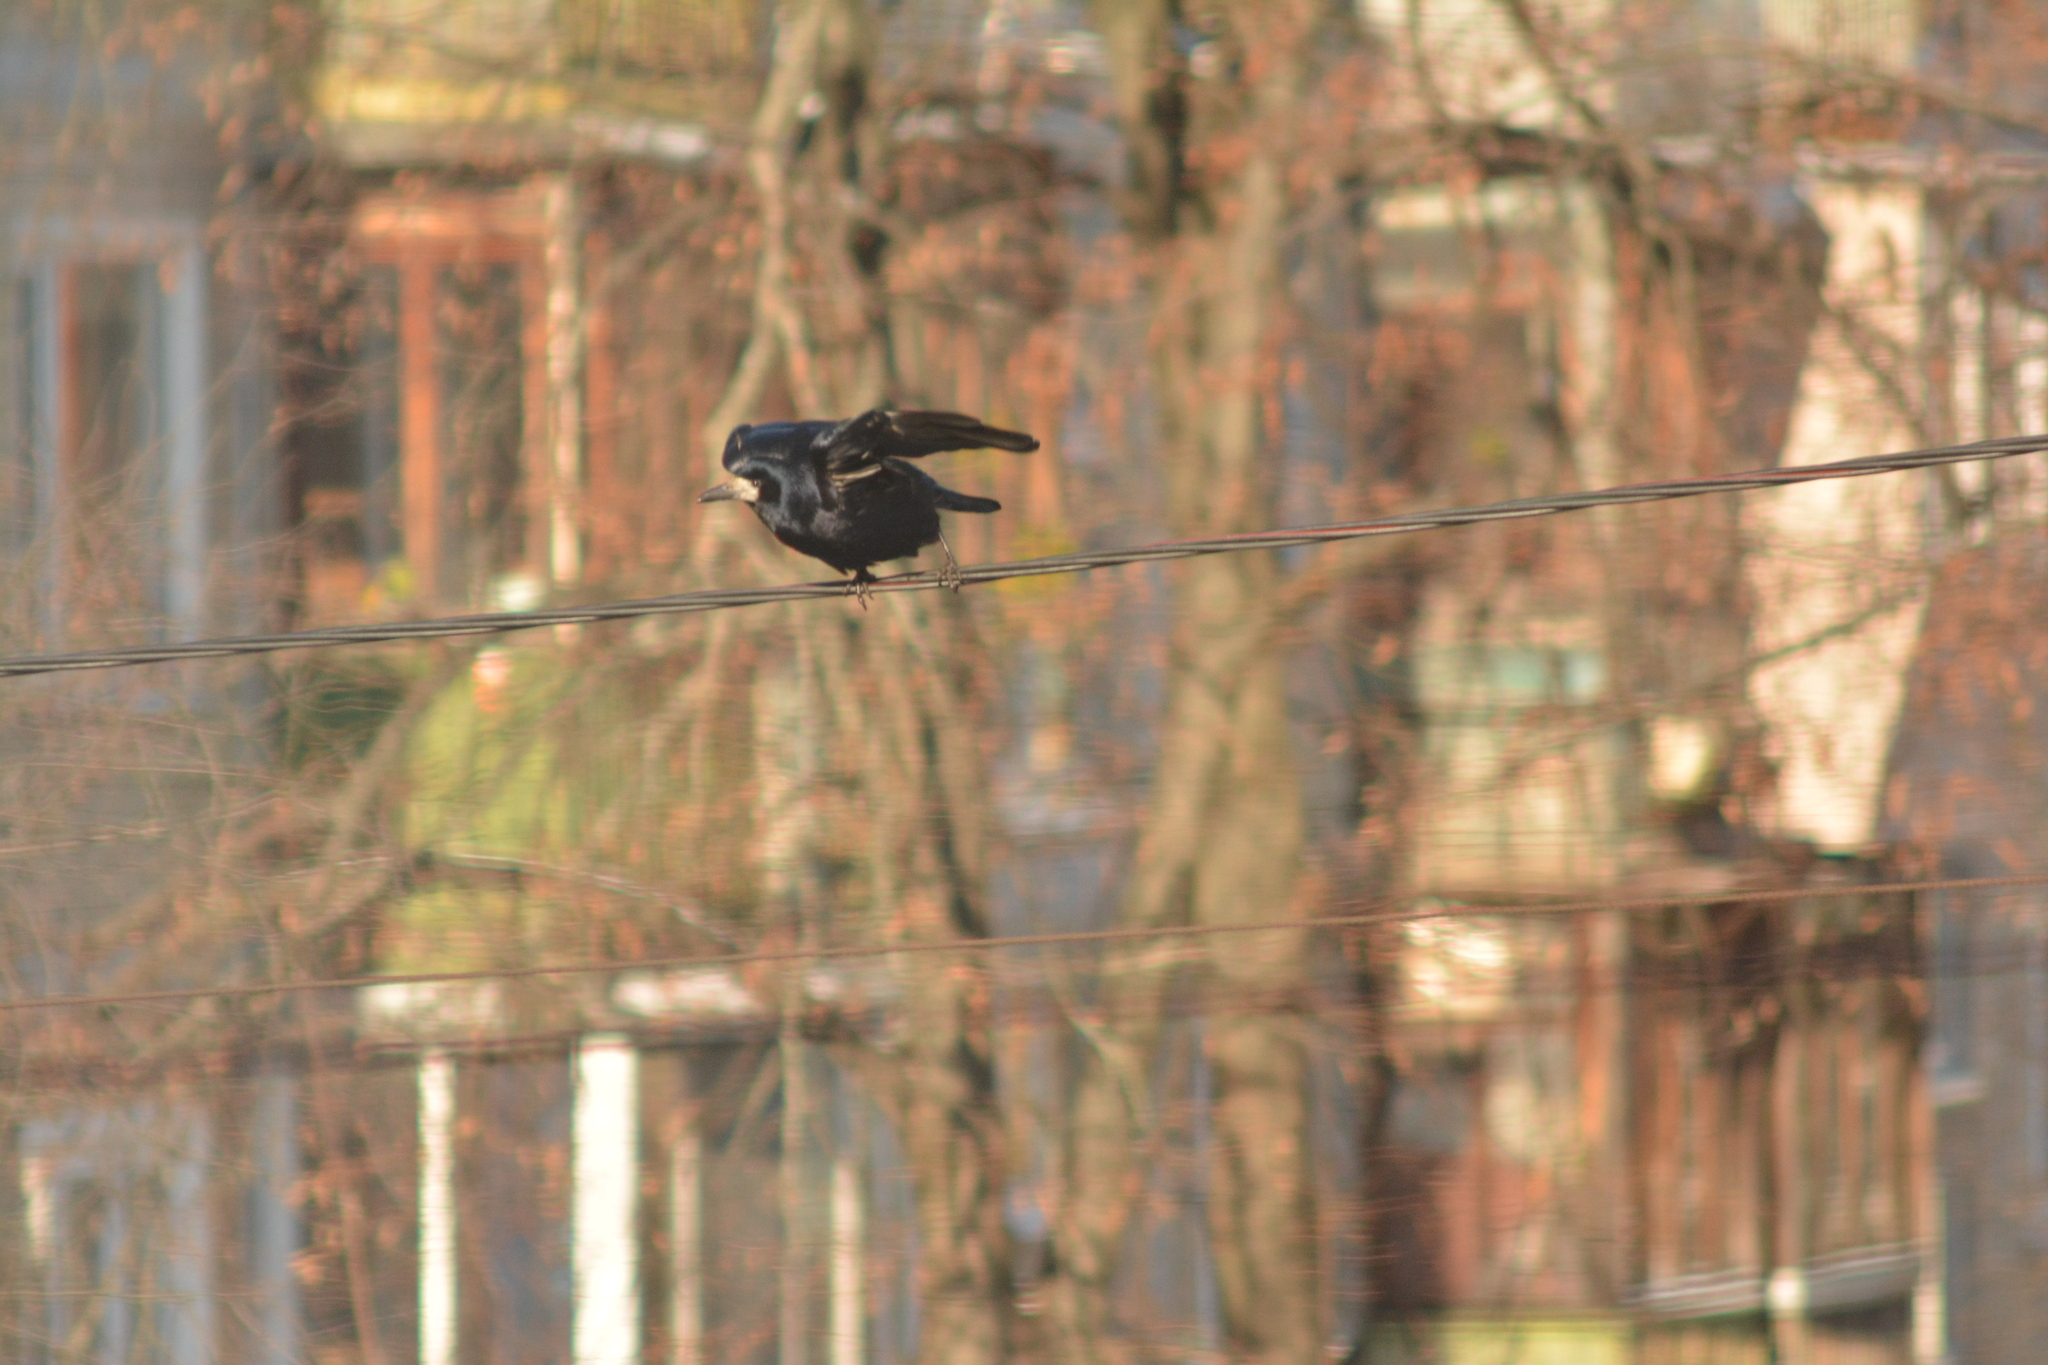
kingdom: Animalia
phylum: Chordata
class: Aves
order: Passeriformes
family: Corvidae
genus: Corvus
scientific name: Corvus frugilegus
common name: Rook
